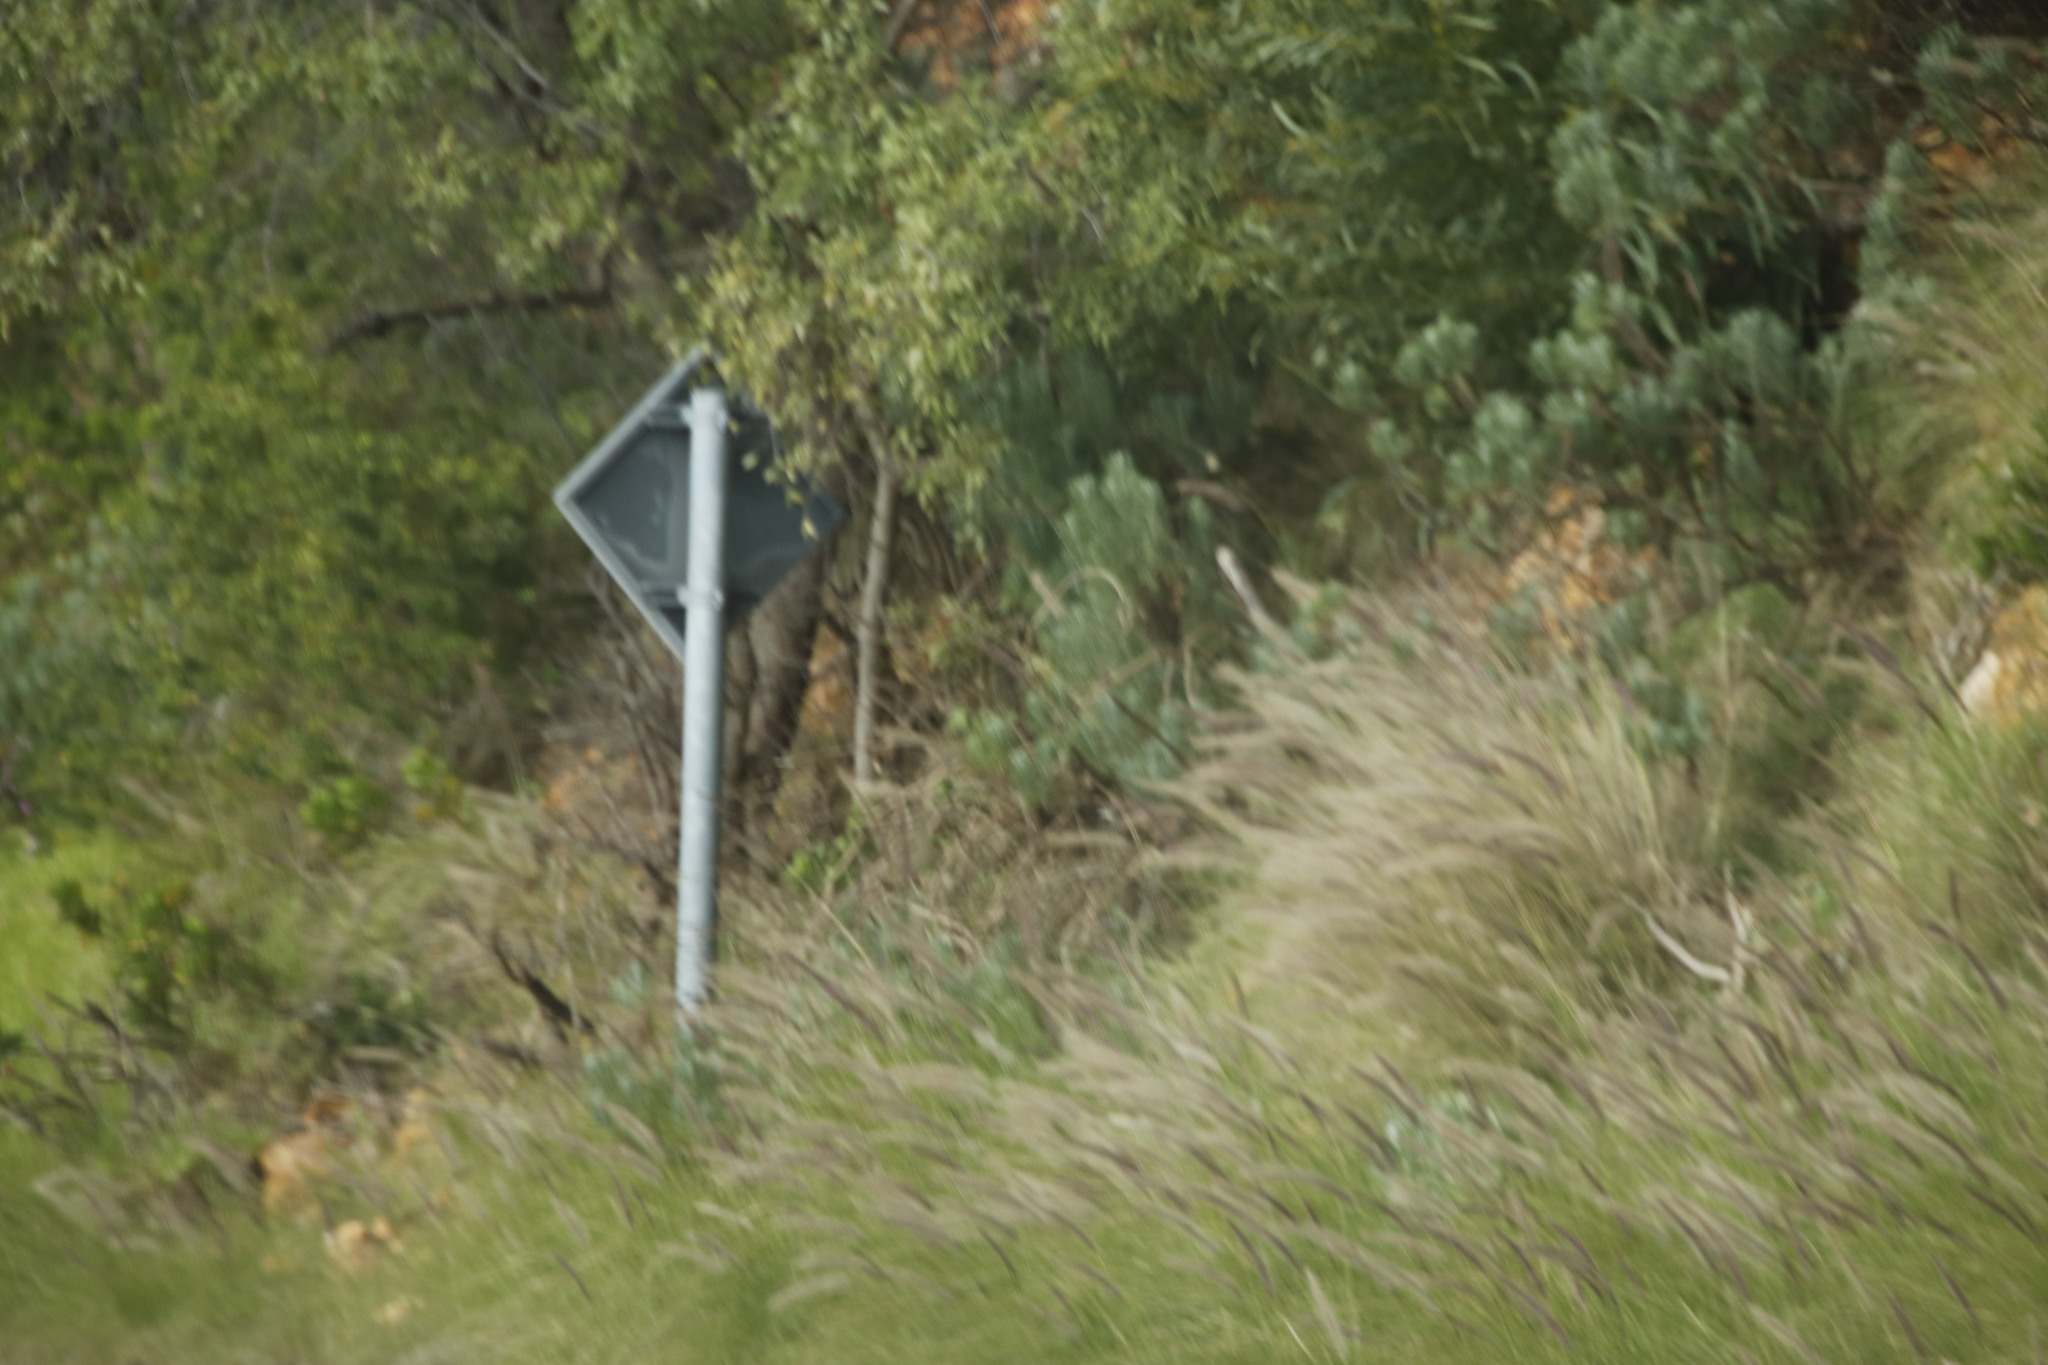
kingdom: Plantae
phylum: Tracheophyta
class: Liliopsida
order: Poales
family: Poaceae
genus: Cenchrus
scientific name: Cenchrus setaceus
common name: Crimson fountaingrass
